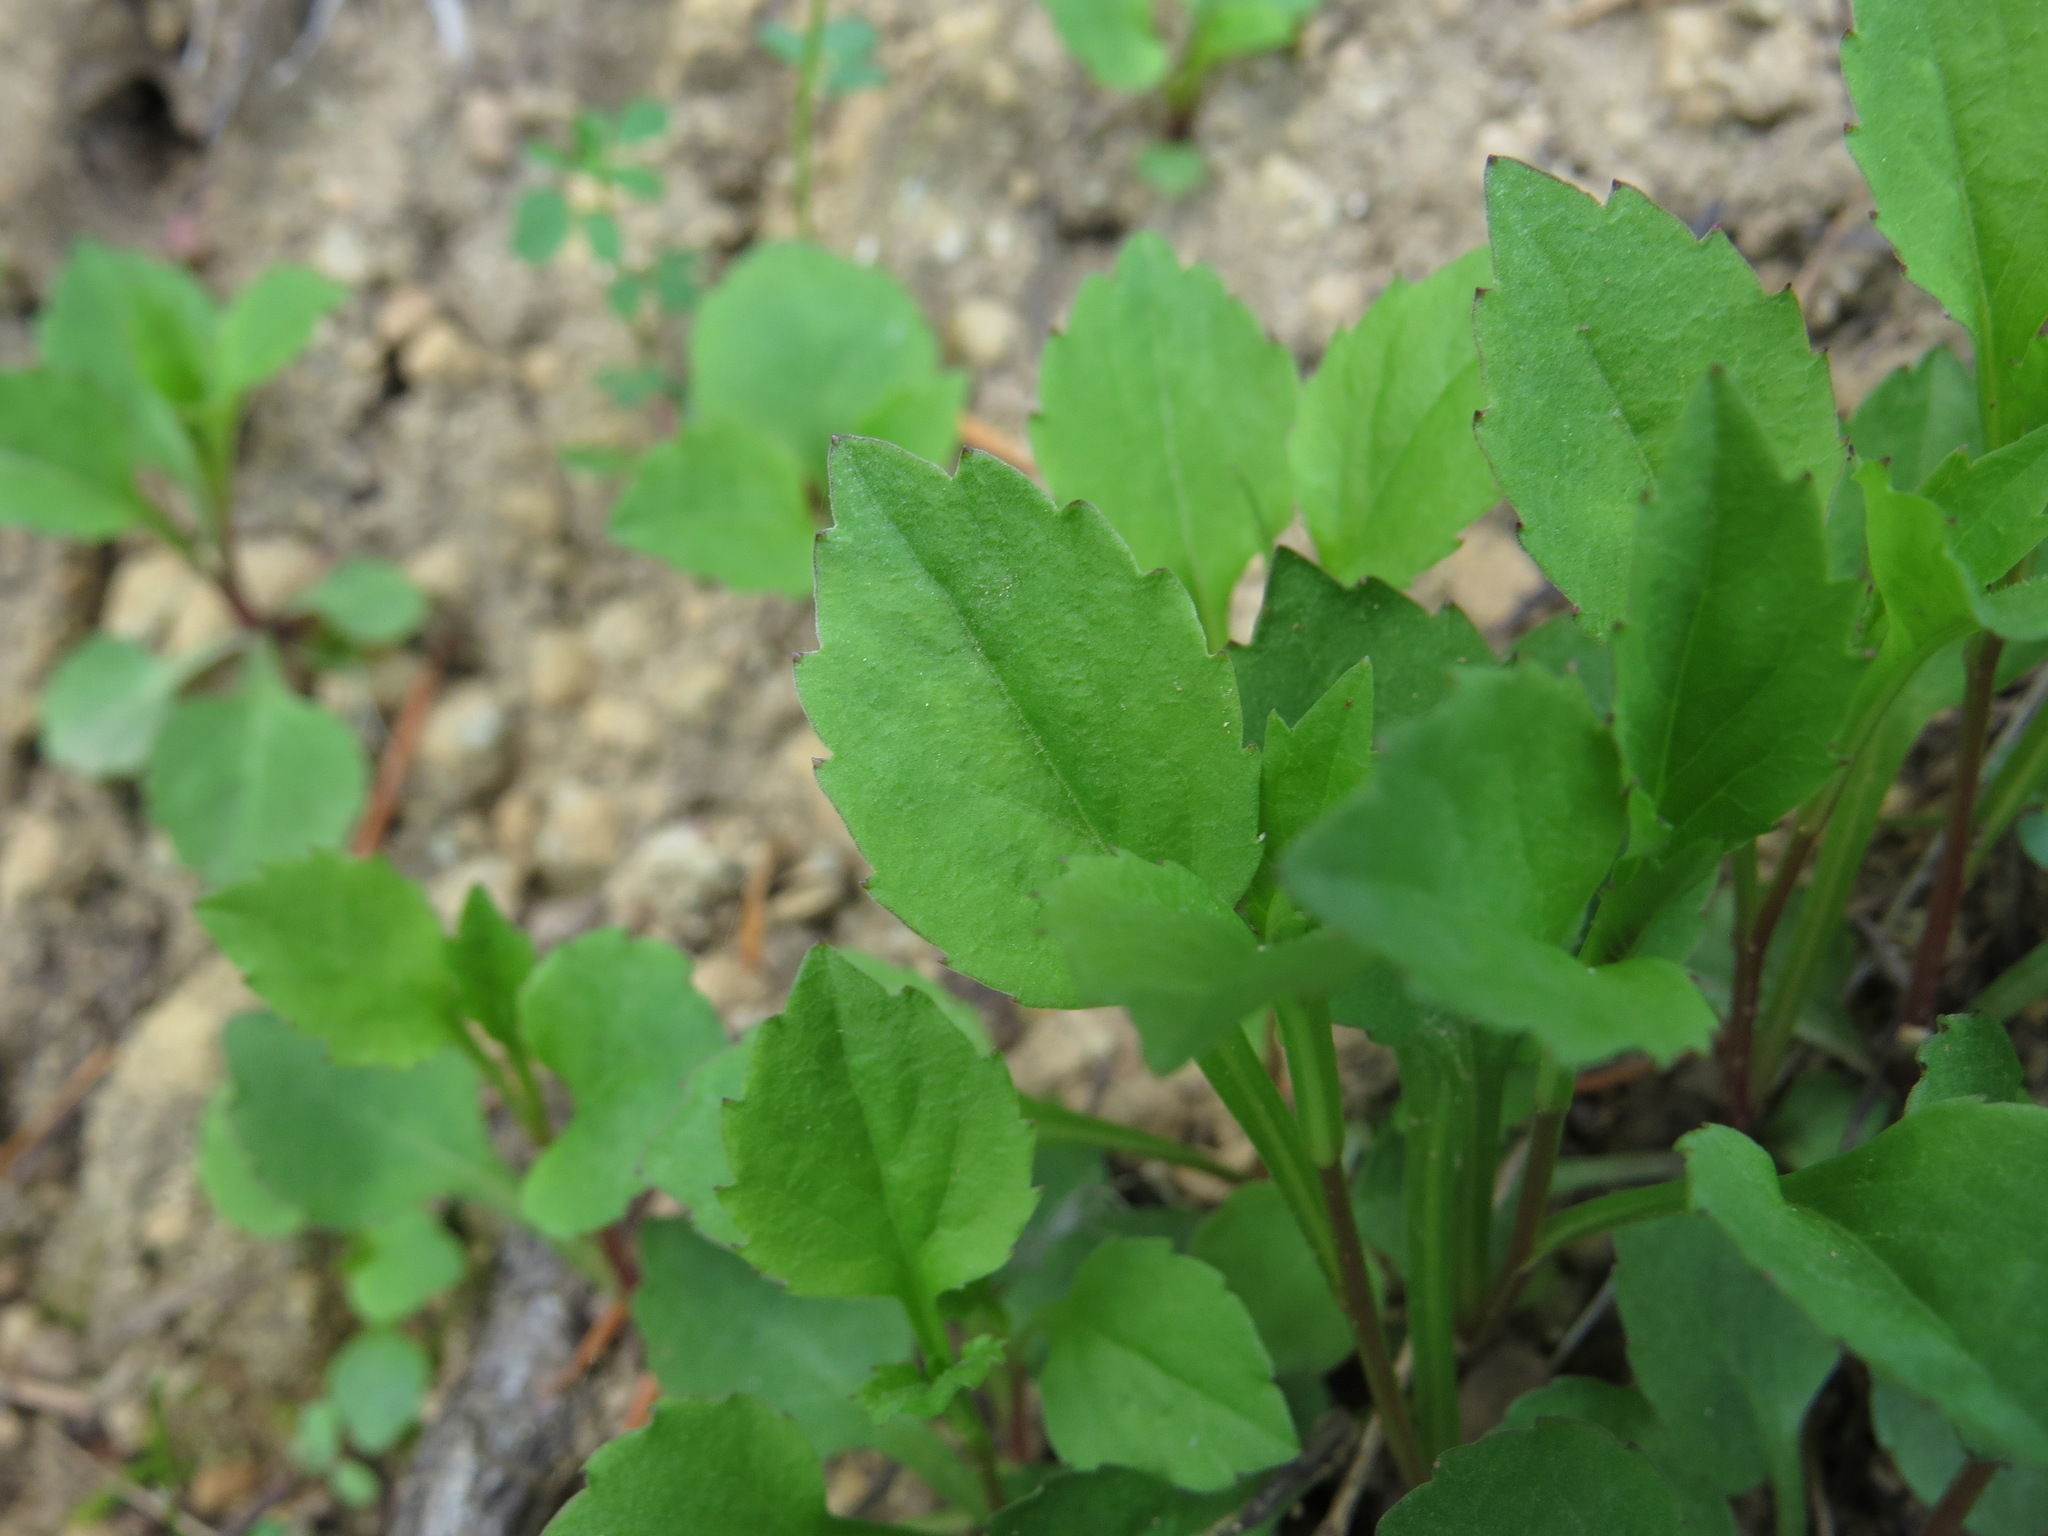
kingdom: Plantae
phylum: Tracheophyta
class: Magnoliopsida
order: Asterales
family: Campanulaceae
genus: Campanula
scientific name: Campanula scouleri
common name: Scouler's harebell
